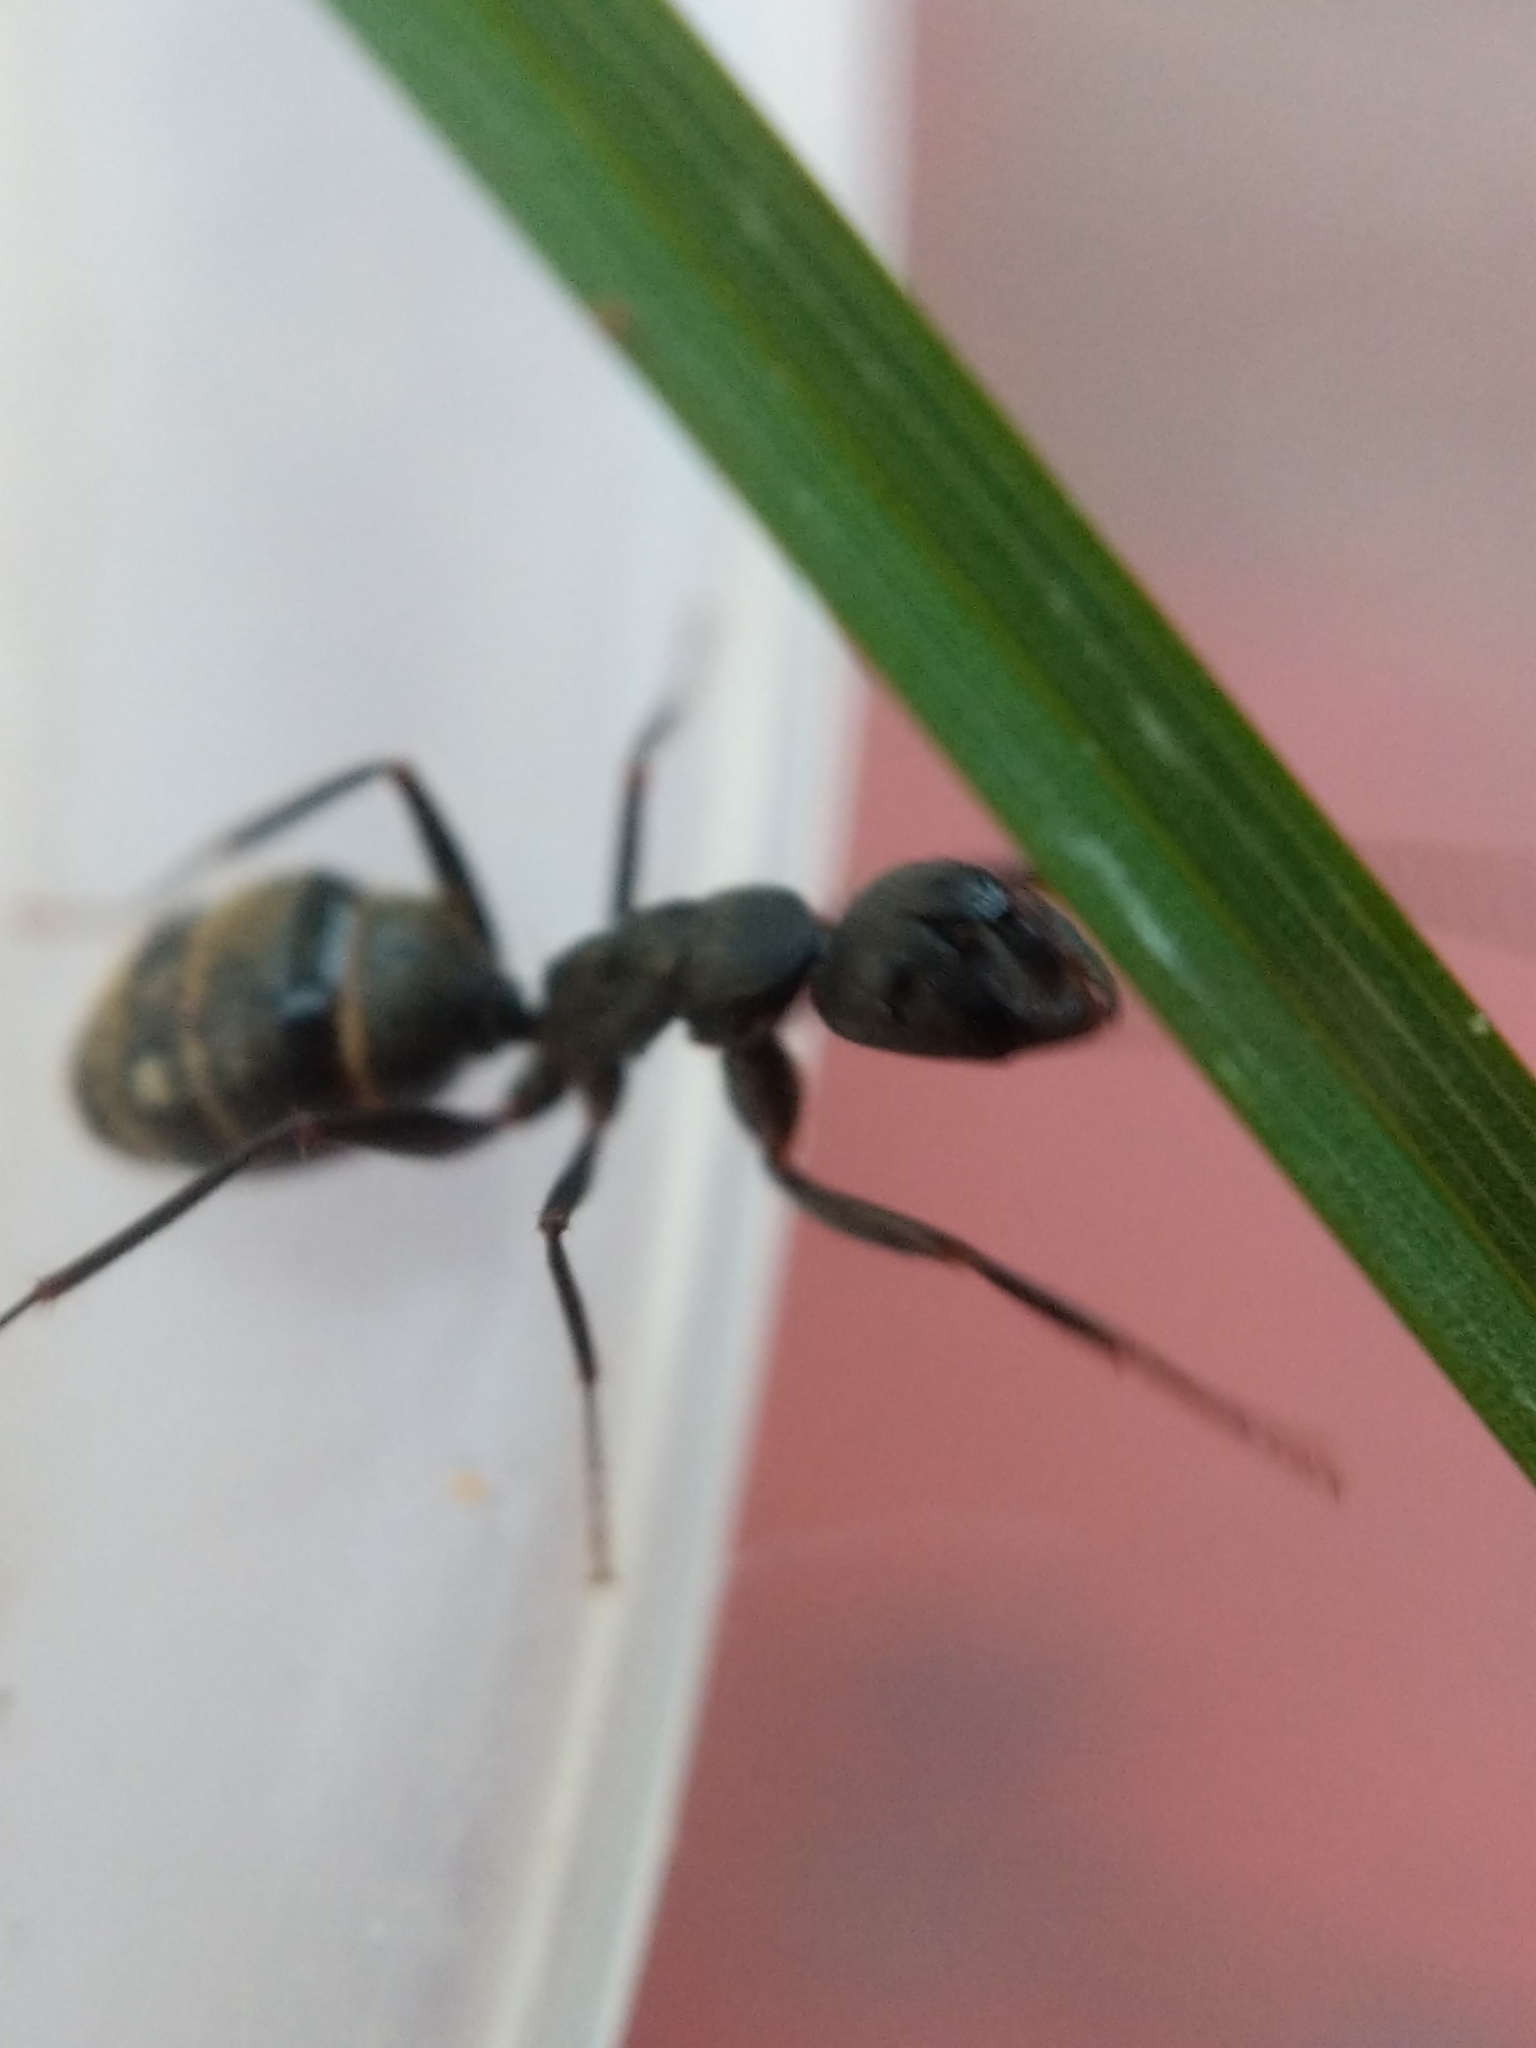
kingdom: Animalia
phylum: Arthropoda
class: Insecta
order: Hymenoptera
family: Formicidae
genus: Camponotus
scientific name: Camponotus pennsylvanicus
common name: Black carpenter ant
